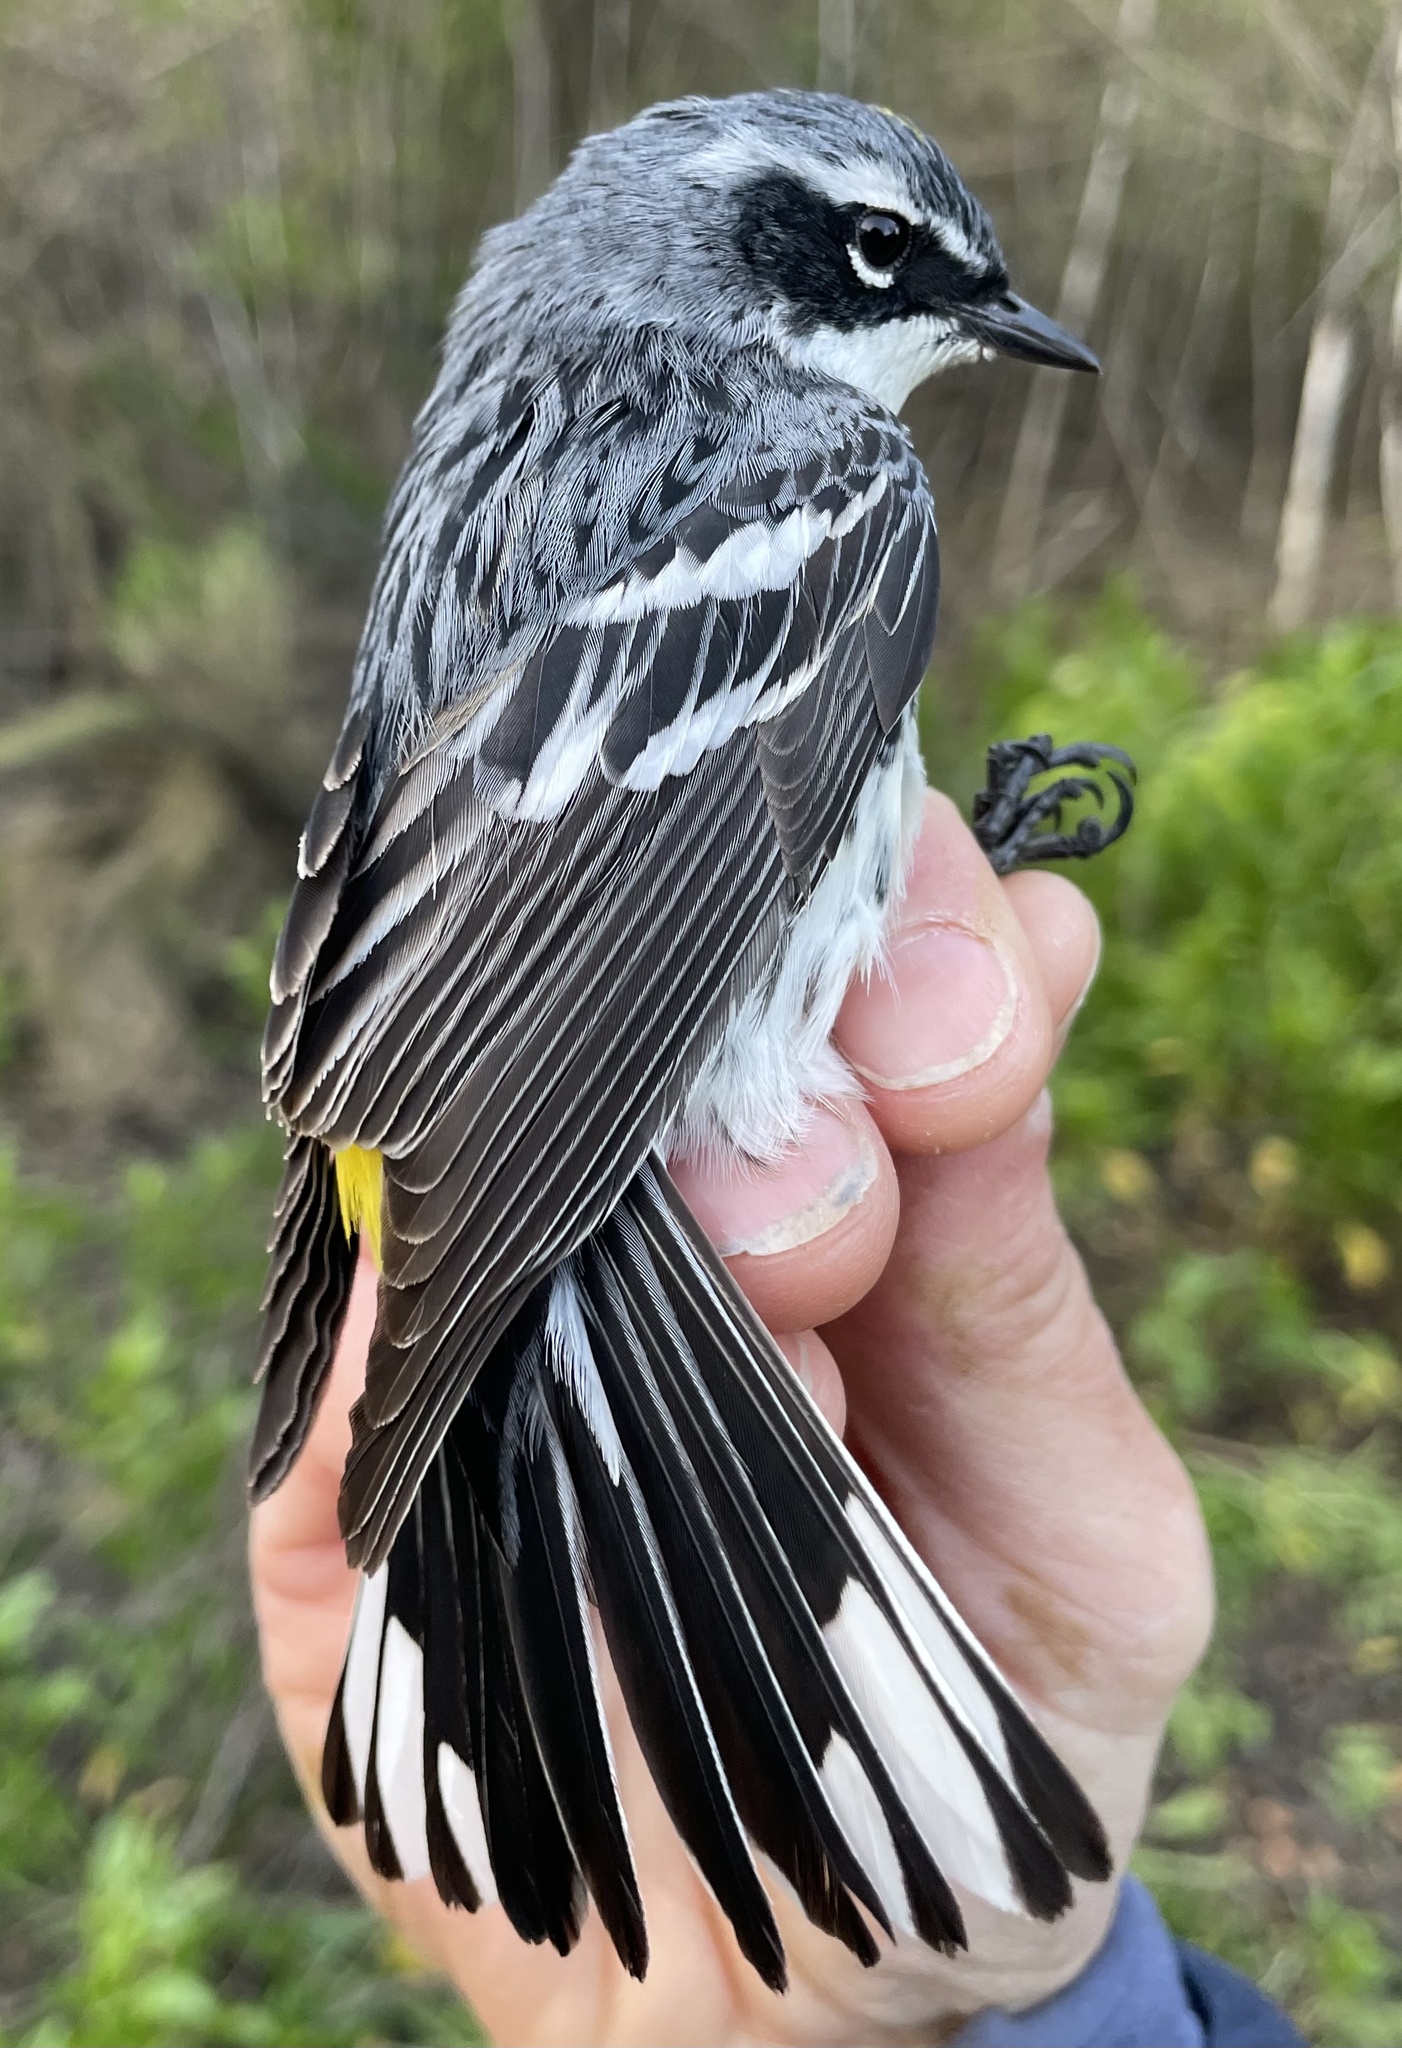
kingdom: Animalia
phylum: Chordata
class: Aves
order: Passeriformes
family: Parulidae
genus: Setophaga
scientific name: Setophaga coronata
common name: Myrtle warbler
